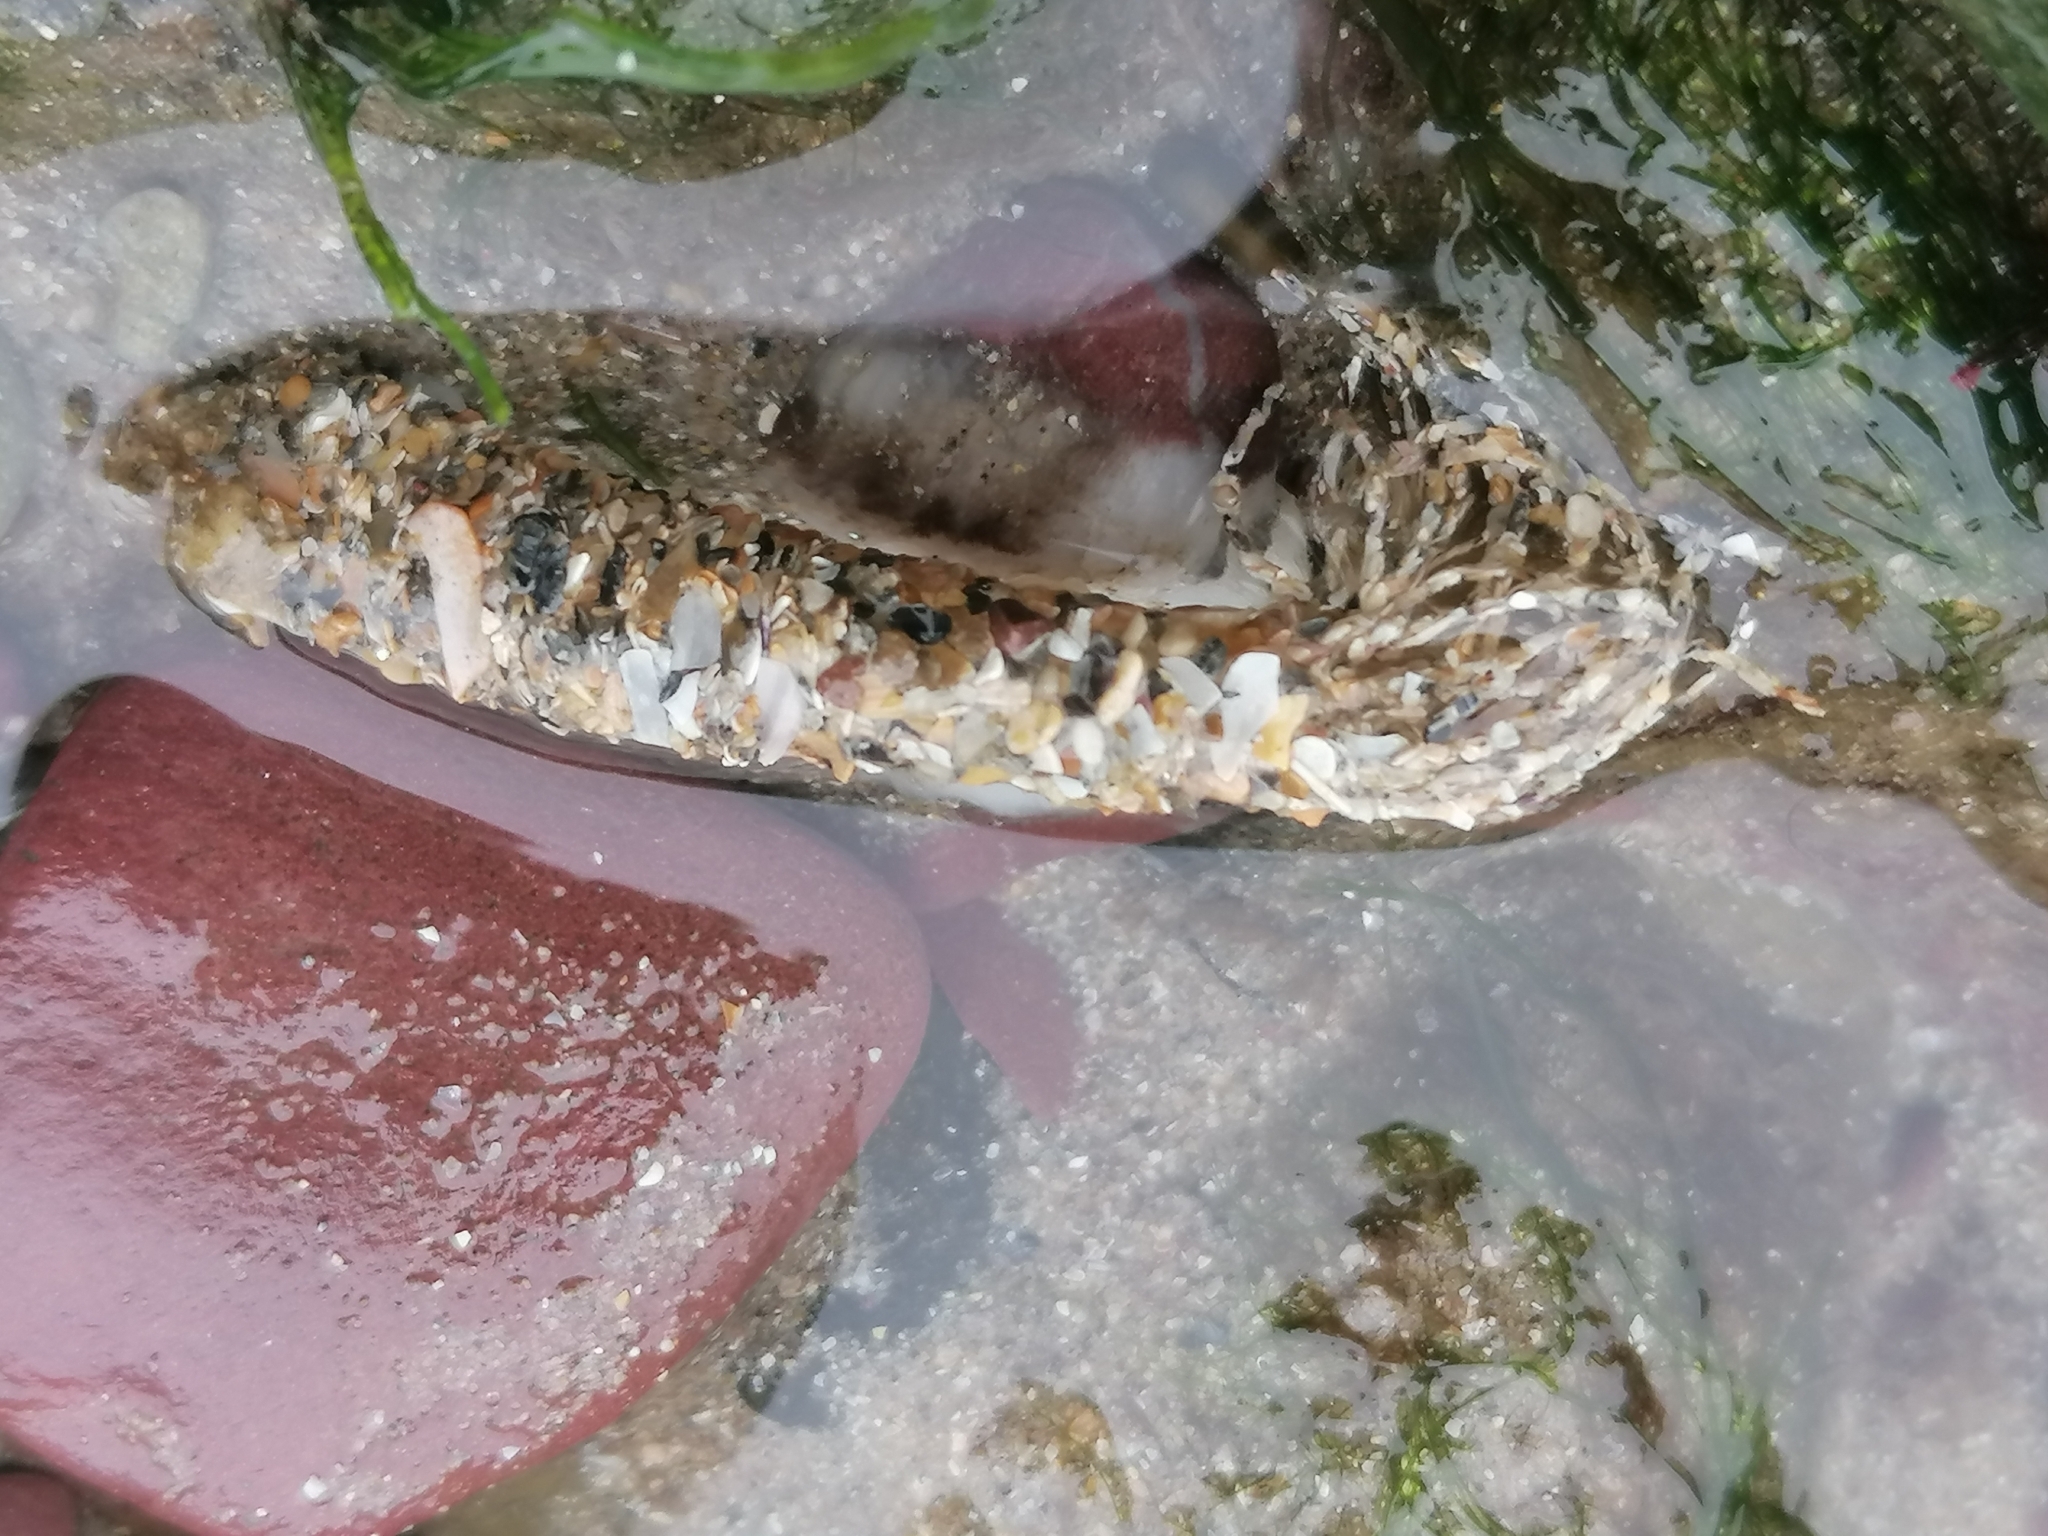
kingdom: Animalia
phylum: Annelida
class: Polychaeta
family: Terebellidae
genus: Lanice
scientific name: Lanice conchilega
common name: Sand mason
